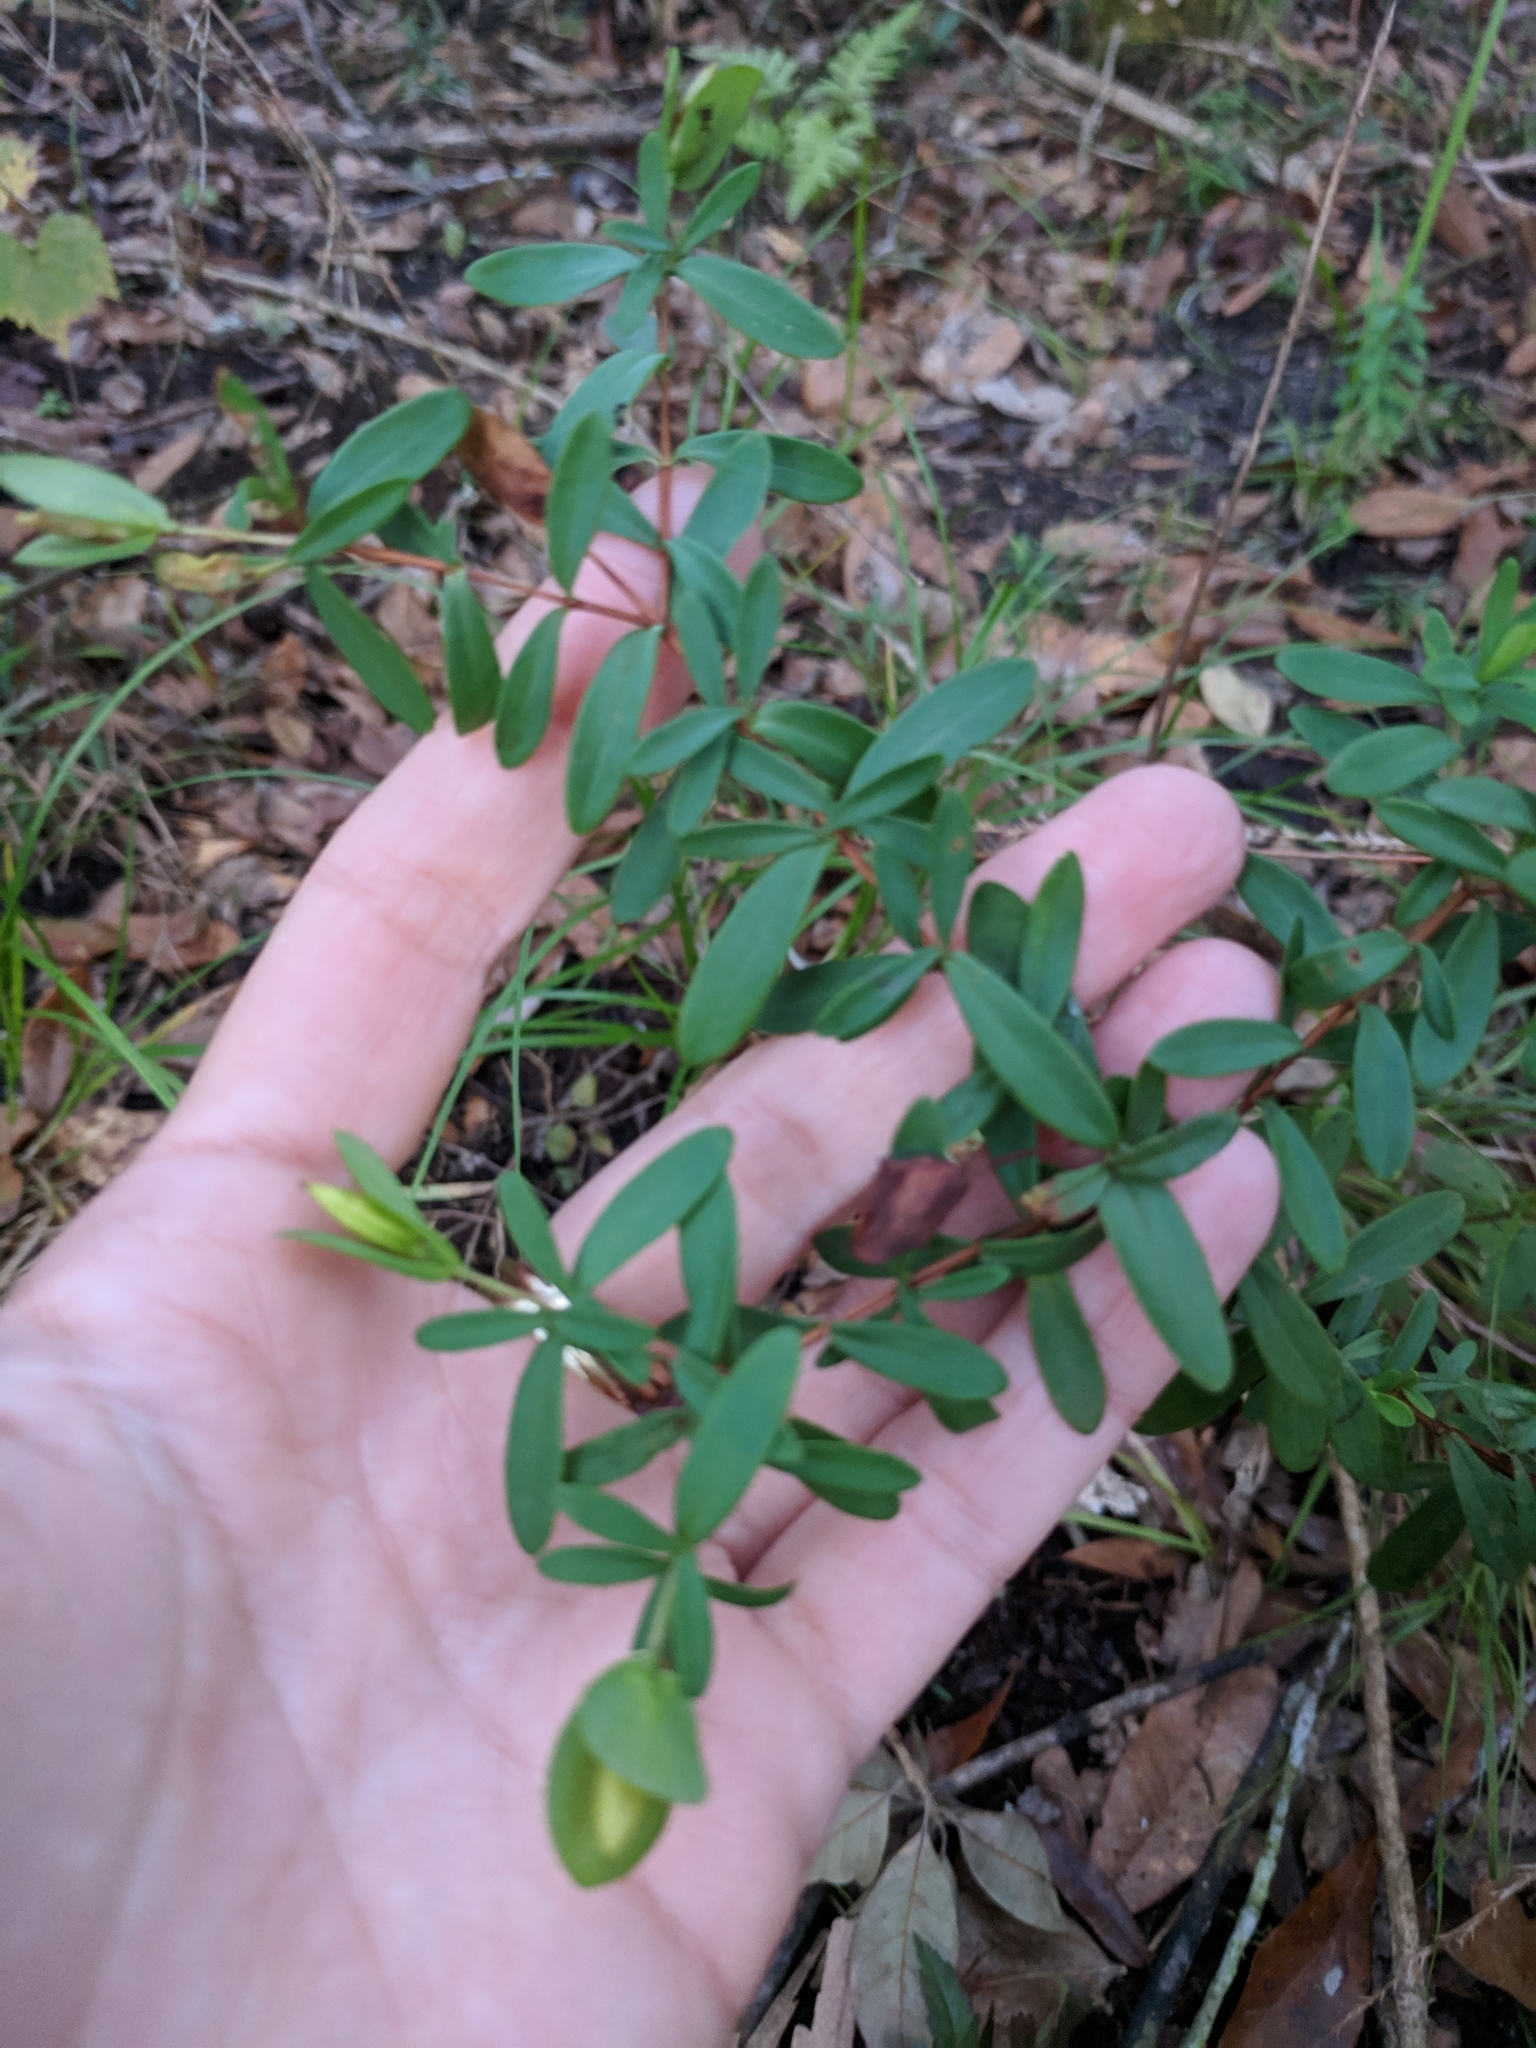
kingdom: Plantae
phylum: Tracheophyta
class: Magnoliopsida
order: Malpighiales
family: Hypericaceae
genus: Hypericum
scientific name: Hypericum hypericoides
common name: St. andrew's cross
